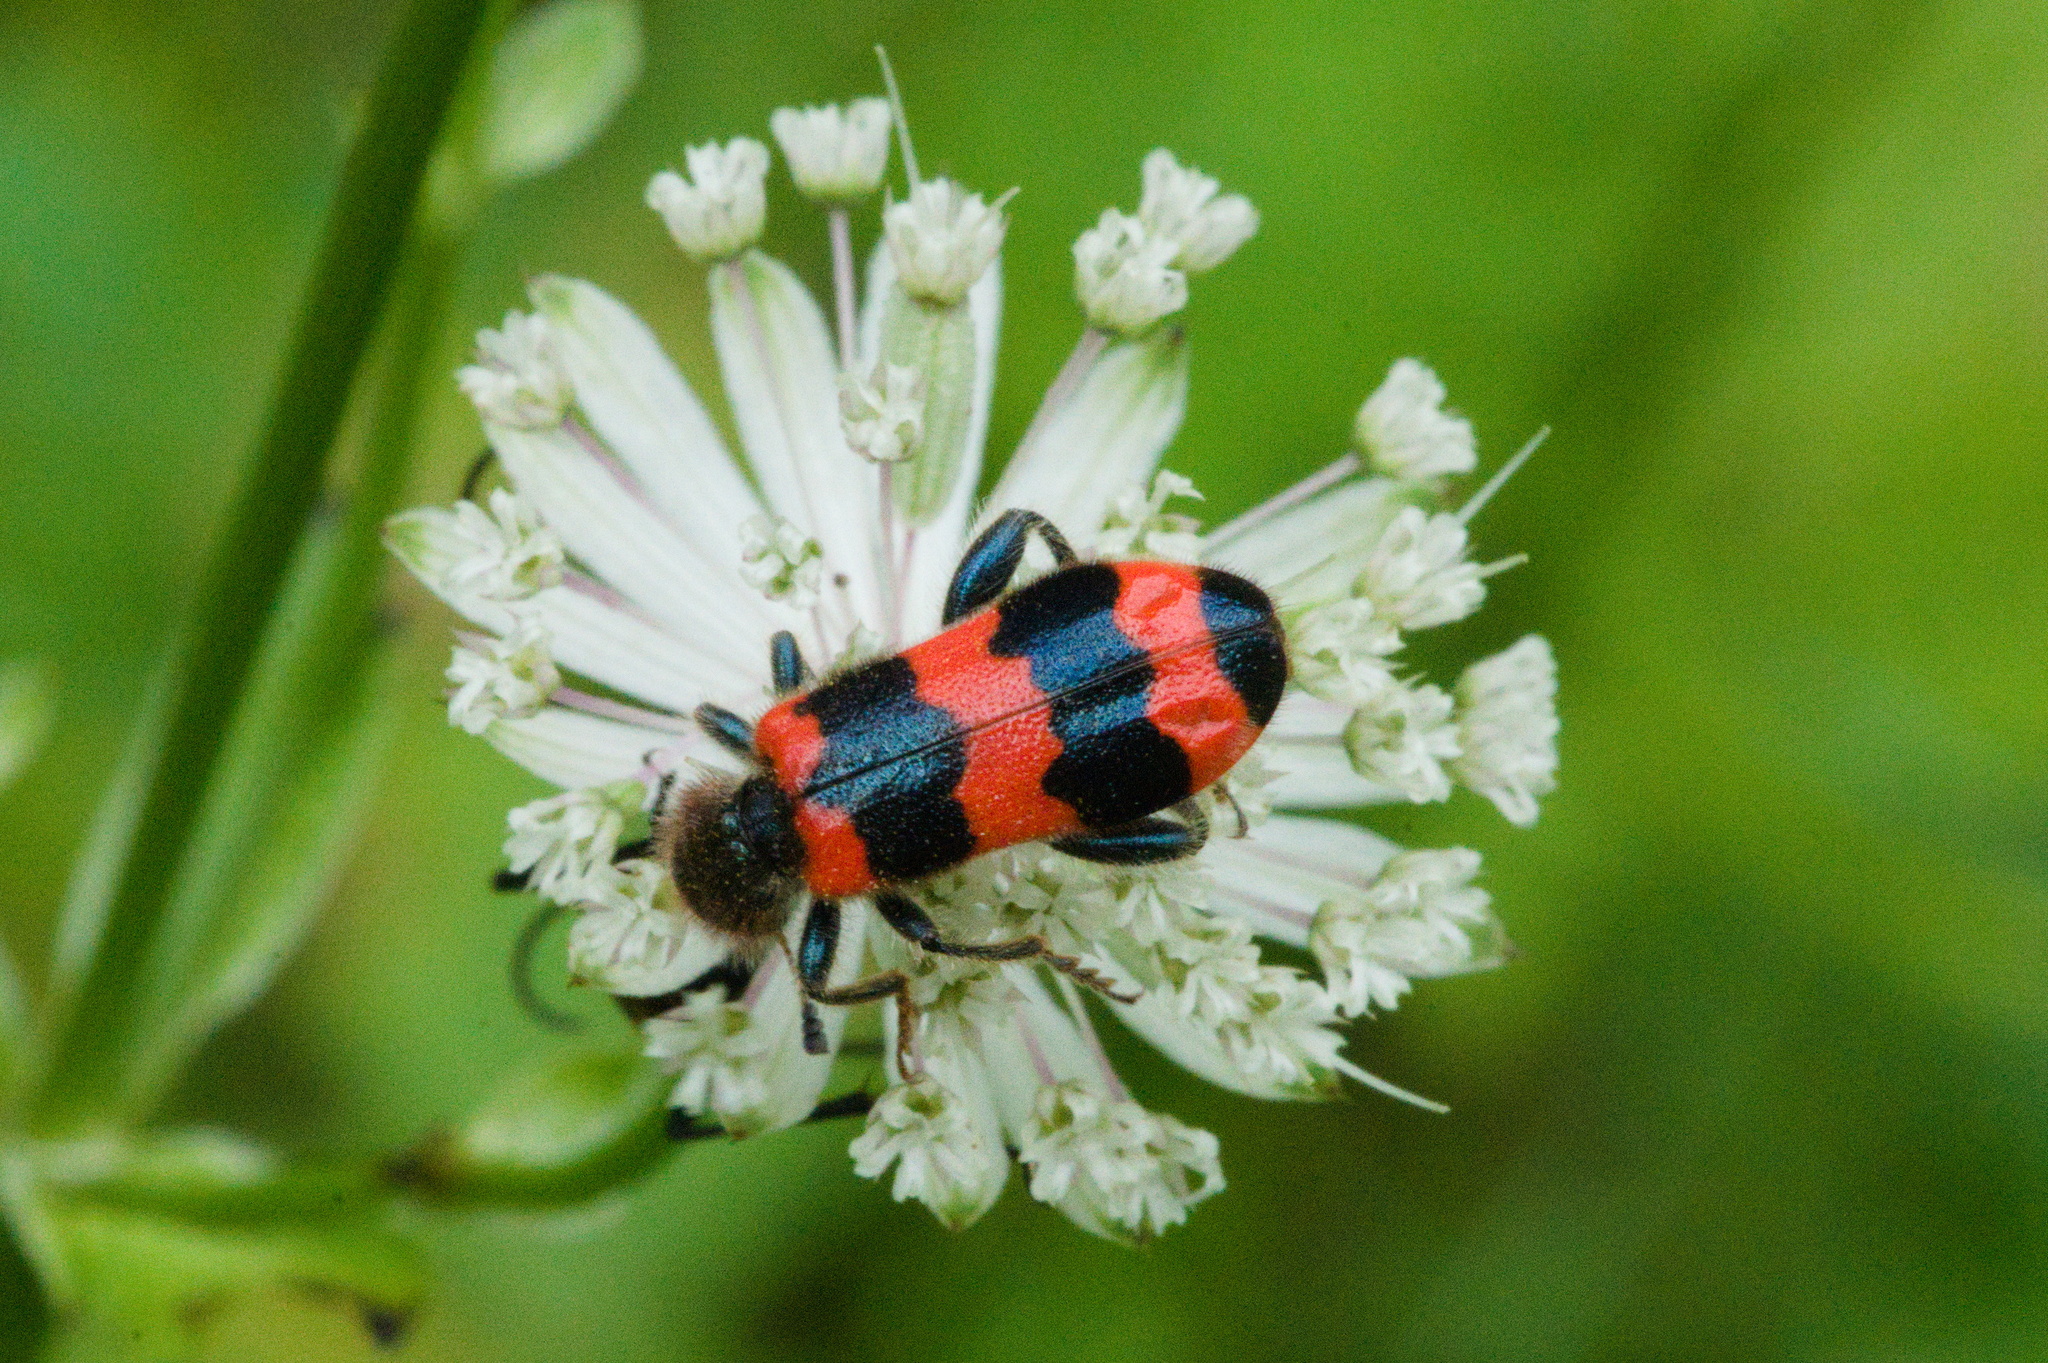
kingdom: Animalia
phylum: Arthropoda
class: Insecta
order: Coleoptera
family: Cleridae
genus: Trichodes
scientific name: Trichodes apiarius
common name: Bee-eating beetle
